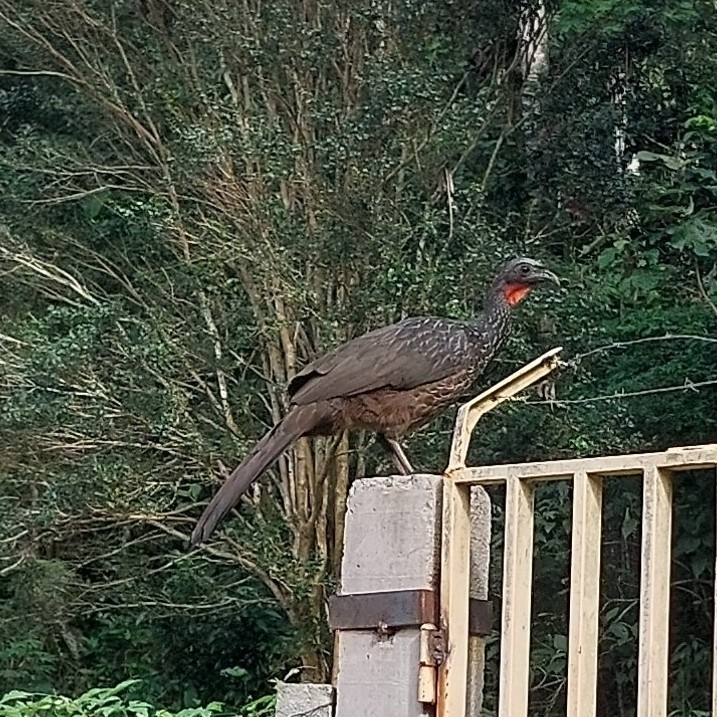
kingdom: Animalia
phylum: Chordata
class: Aves
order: Galliformes
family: Cracidae
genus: Penelope
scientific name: Penelope obscura
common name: Dusky-legged guan
